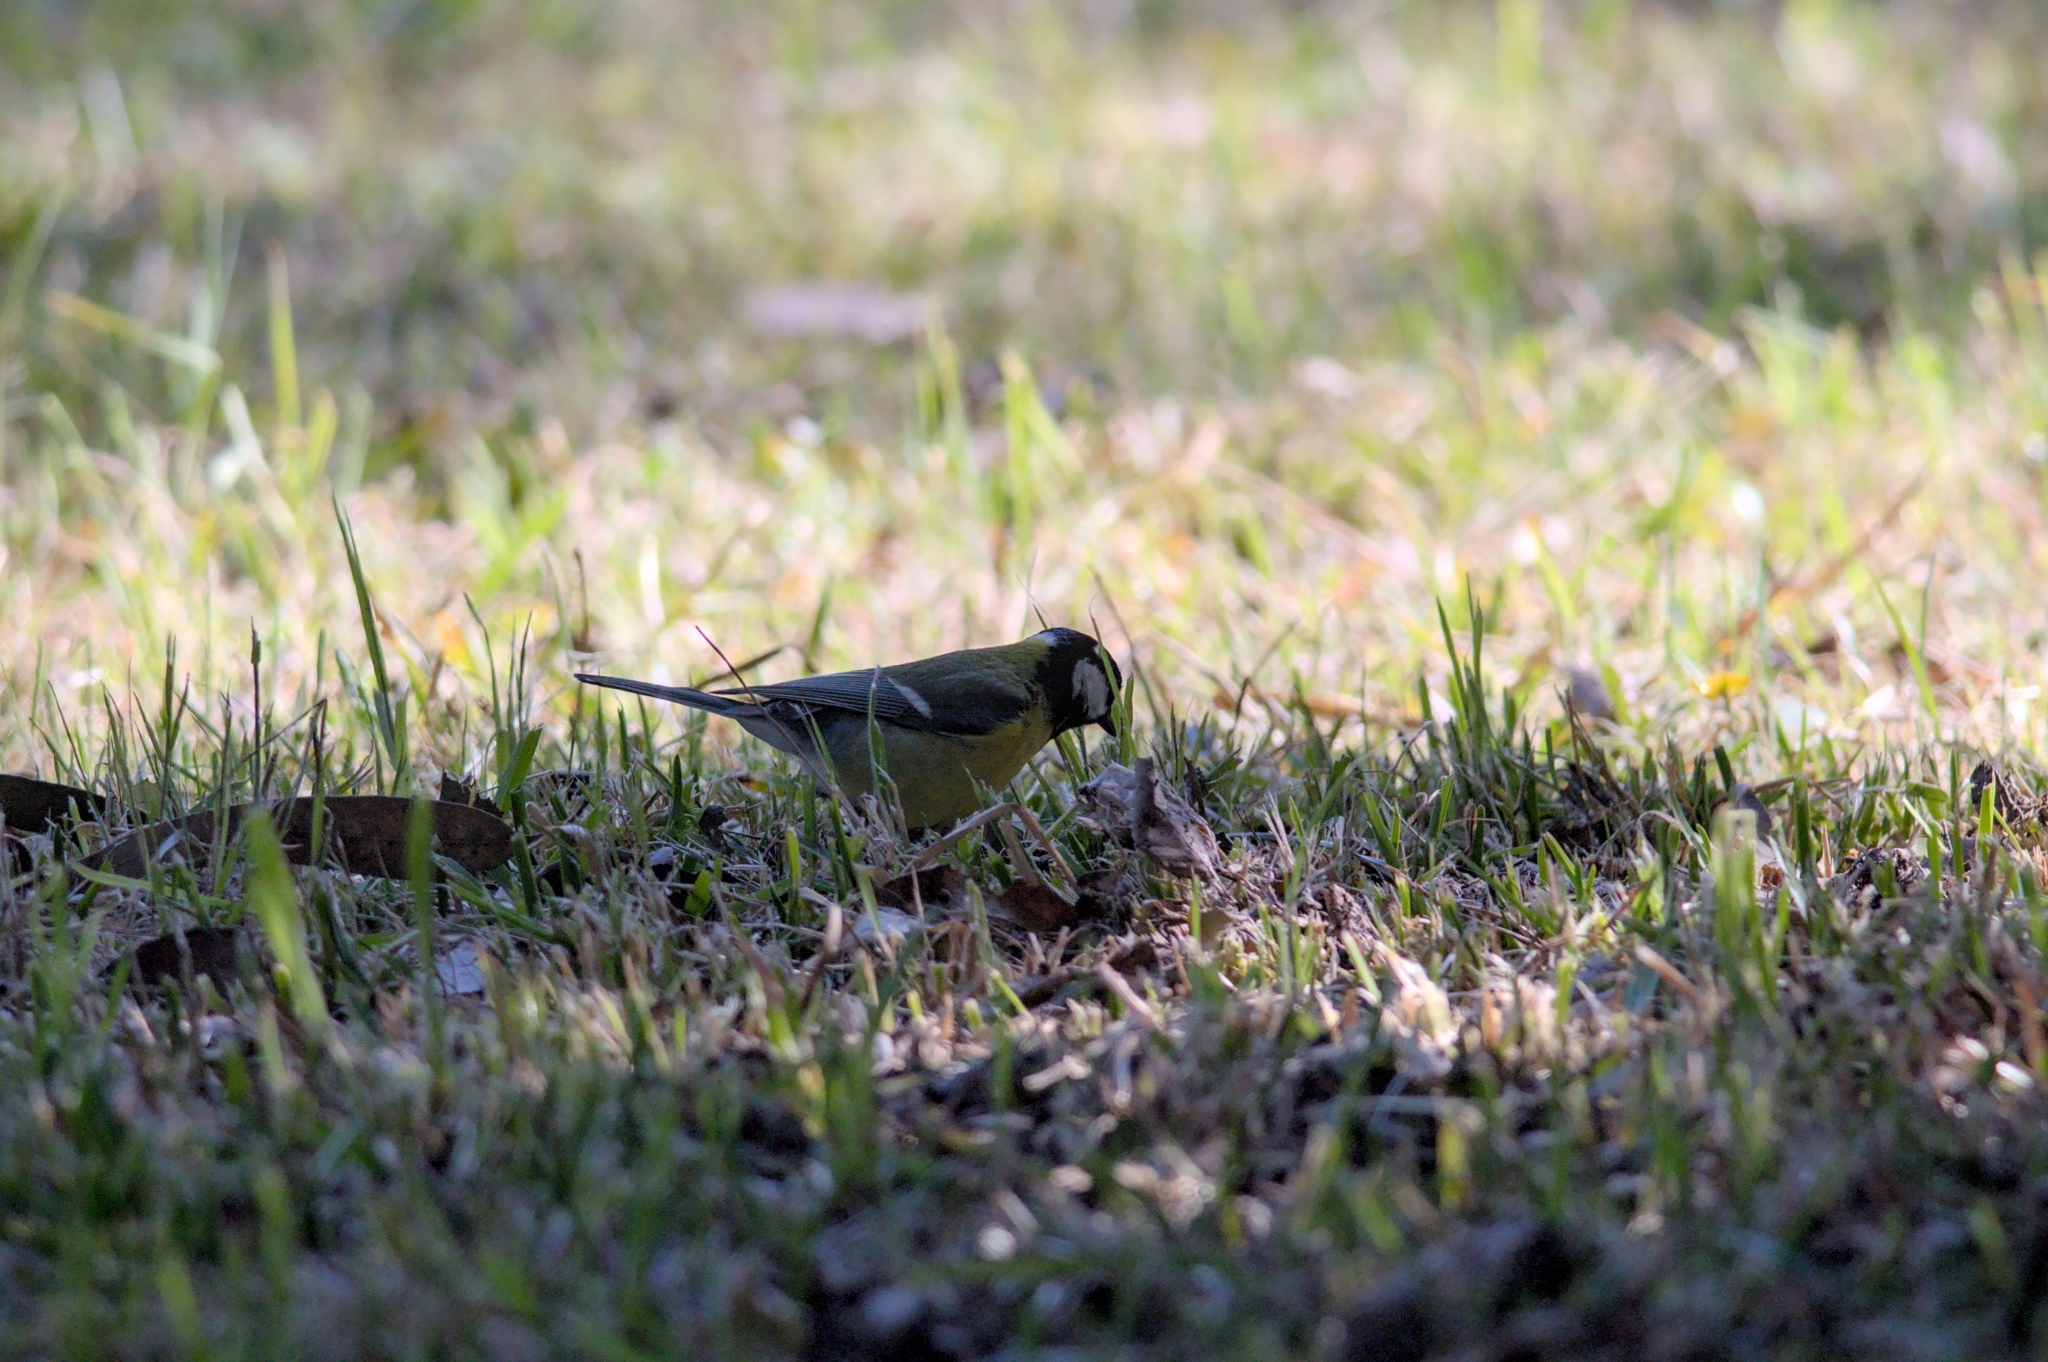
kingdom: Animalia
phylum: Chordata
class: Aves
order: Passeriformes
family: Paridae
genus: Parus
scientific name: Parus major
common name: Great tit
